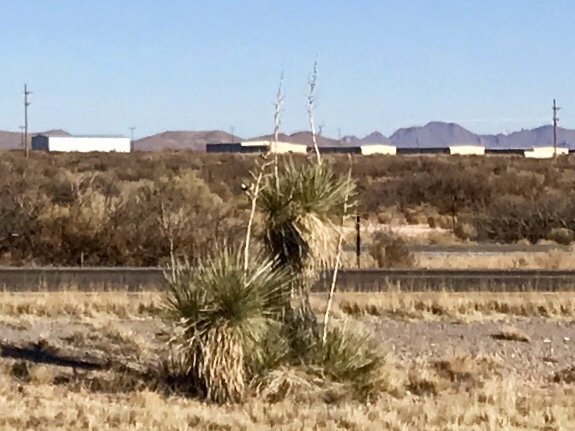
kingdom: Plantae
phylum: Tracheophyta
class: Liliopsida
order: Asparagales
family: Asparagaceae
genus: Yucca
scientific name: Yucca elata
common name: Palmella
